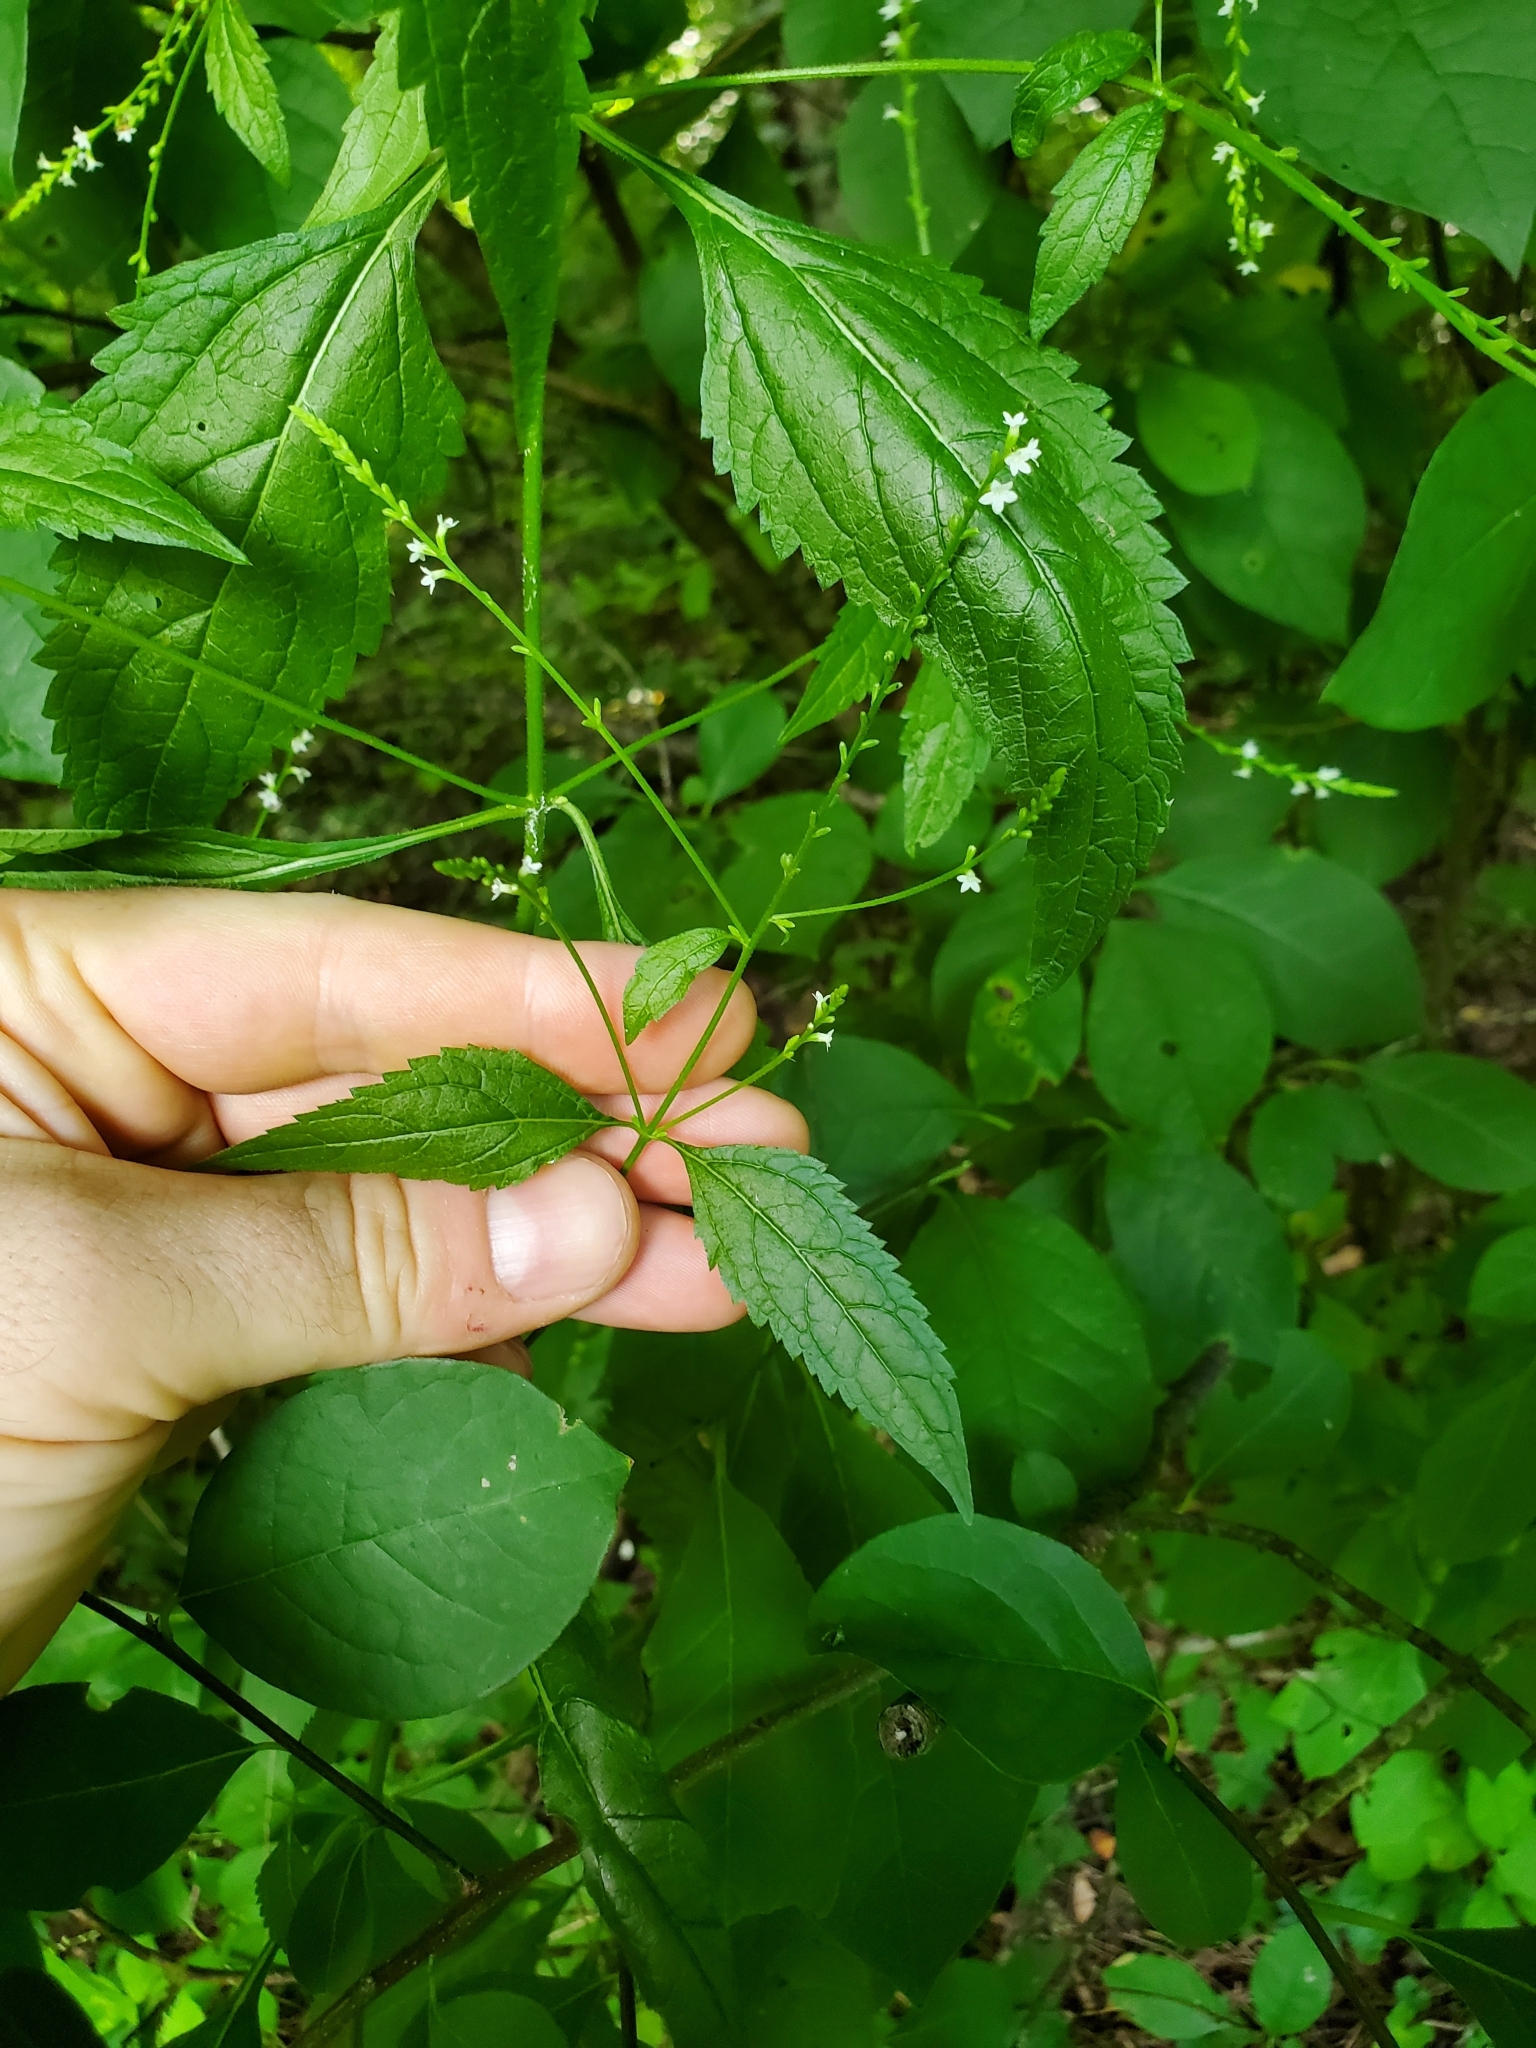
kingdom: Plantae
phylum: Tracheophyta
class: Magnoliopsida
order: Lamiales
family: Verbenaceae
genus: Verbena
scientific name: Verbena urticifolia
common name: Nettle-leaved vervain
